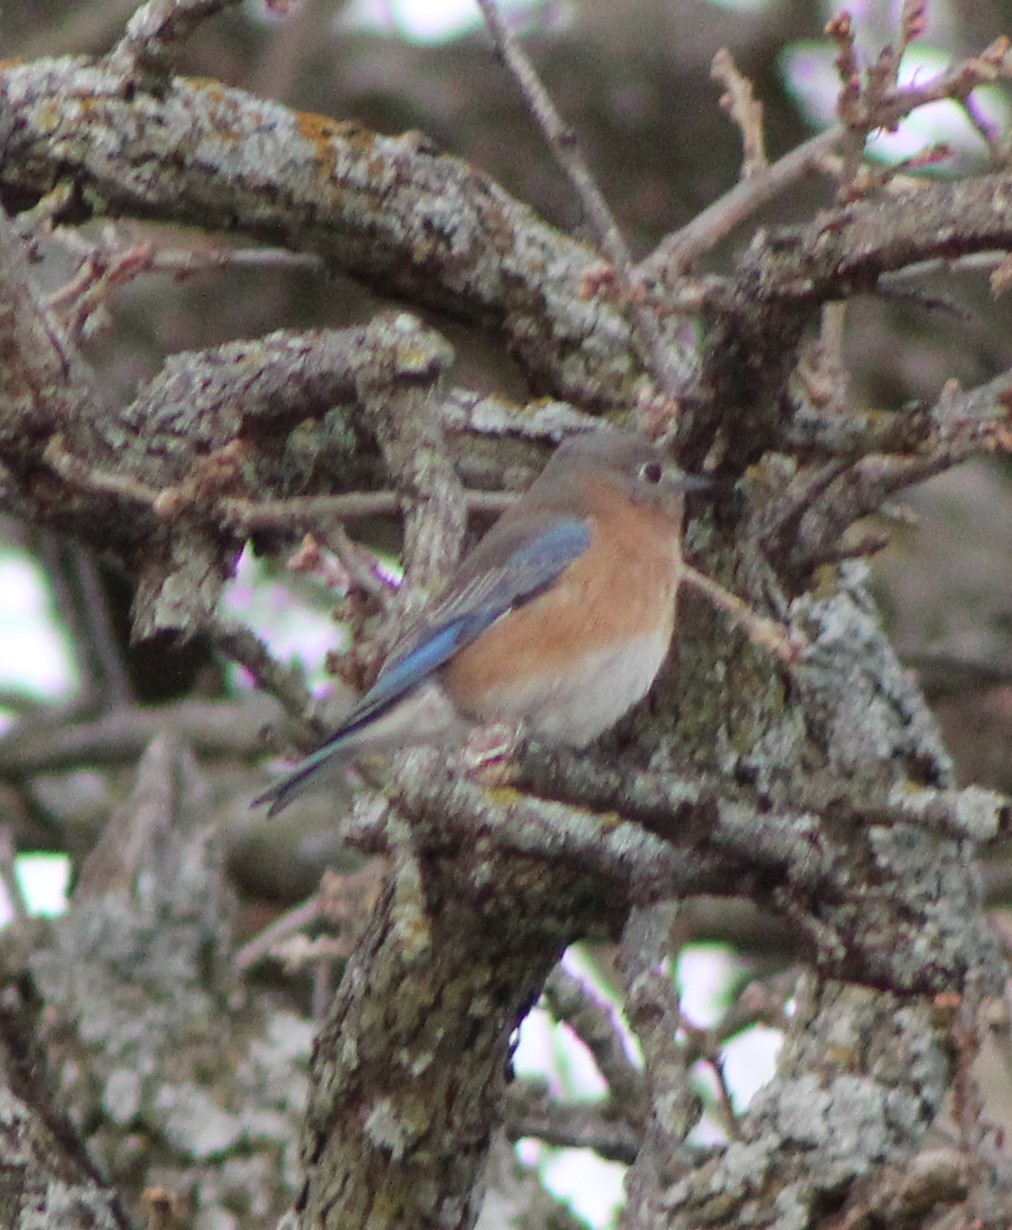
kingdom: Animalia
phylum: Chordata
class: Aves
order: Passeriformes
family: Turdidae
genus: Sialia
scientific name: Sialia sialis
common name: Eastern bluebird
